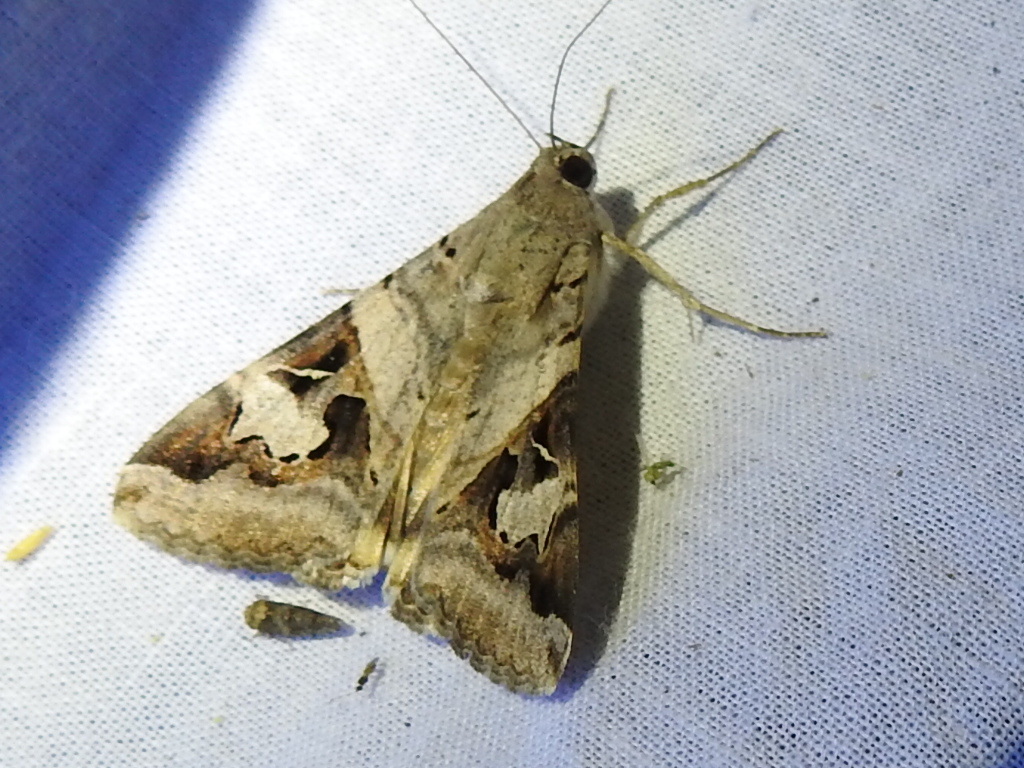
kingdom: Animalia
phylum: Arthropoda
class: Insecta
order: Lepidoptera
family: Erebidae
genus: Melipotis
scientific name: Melipotis indomita
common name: Moth
